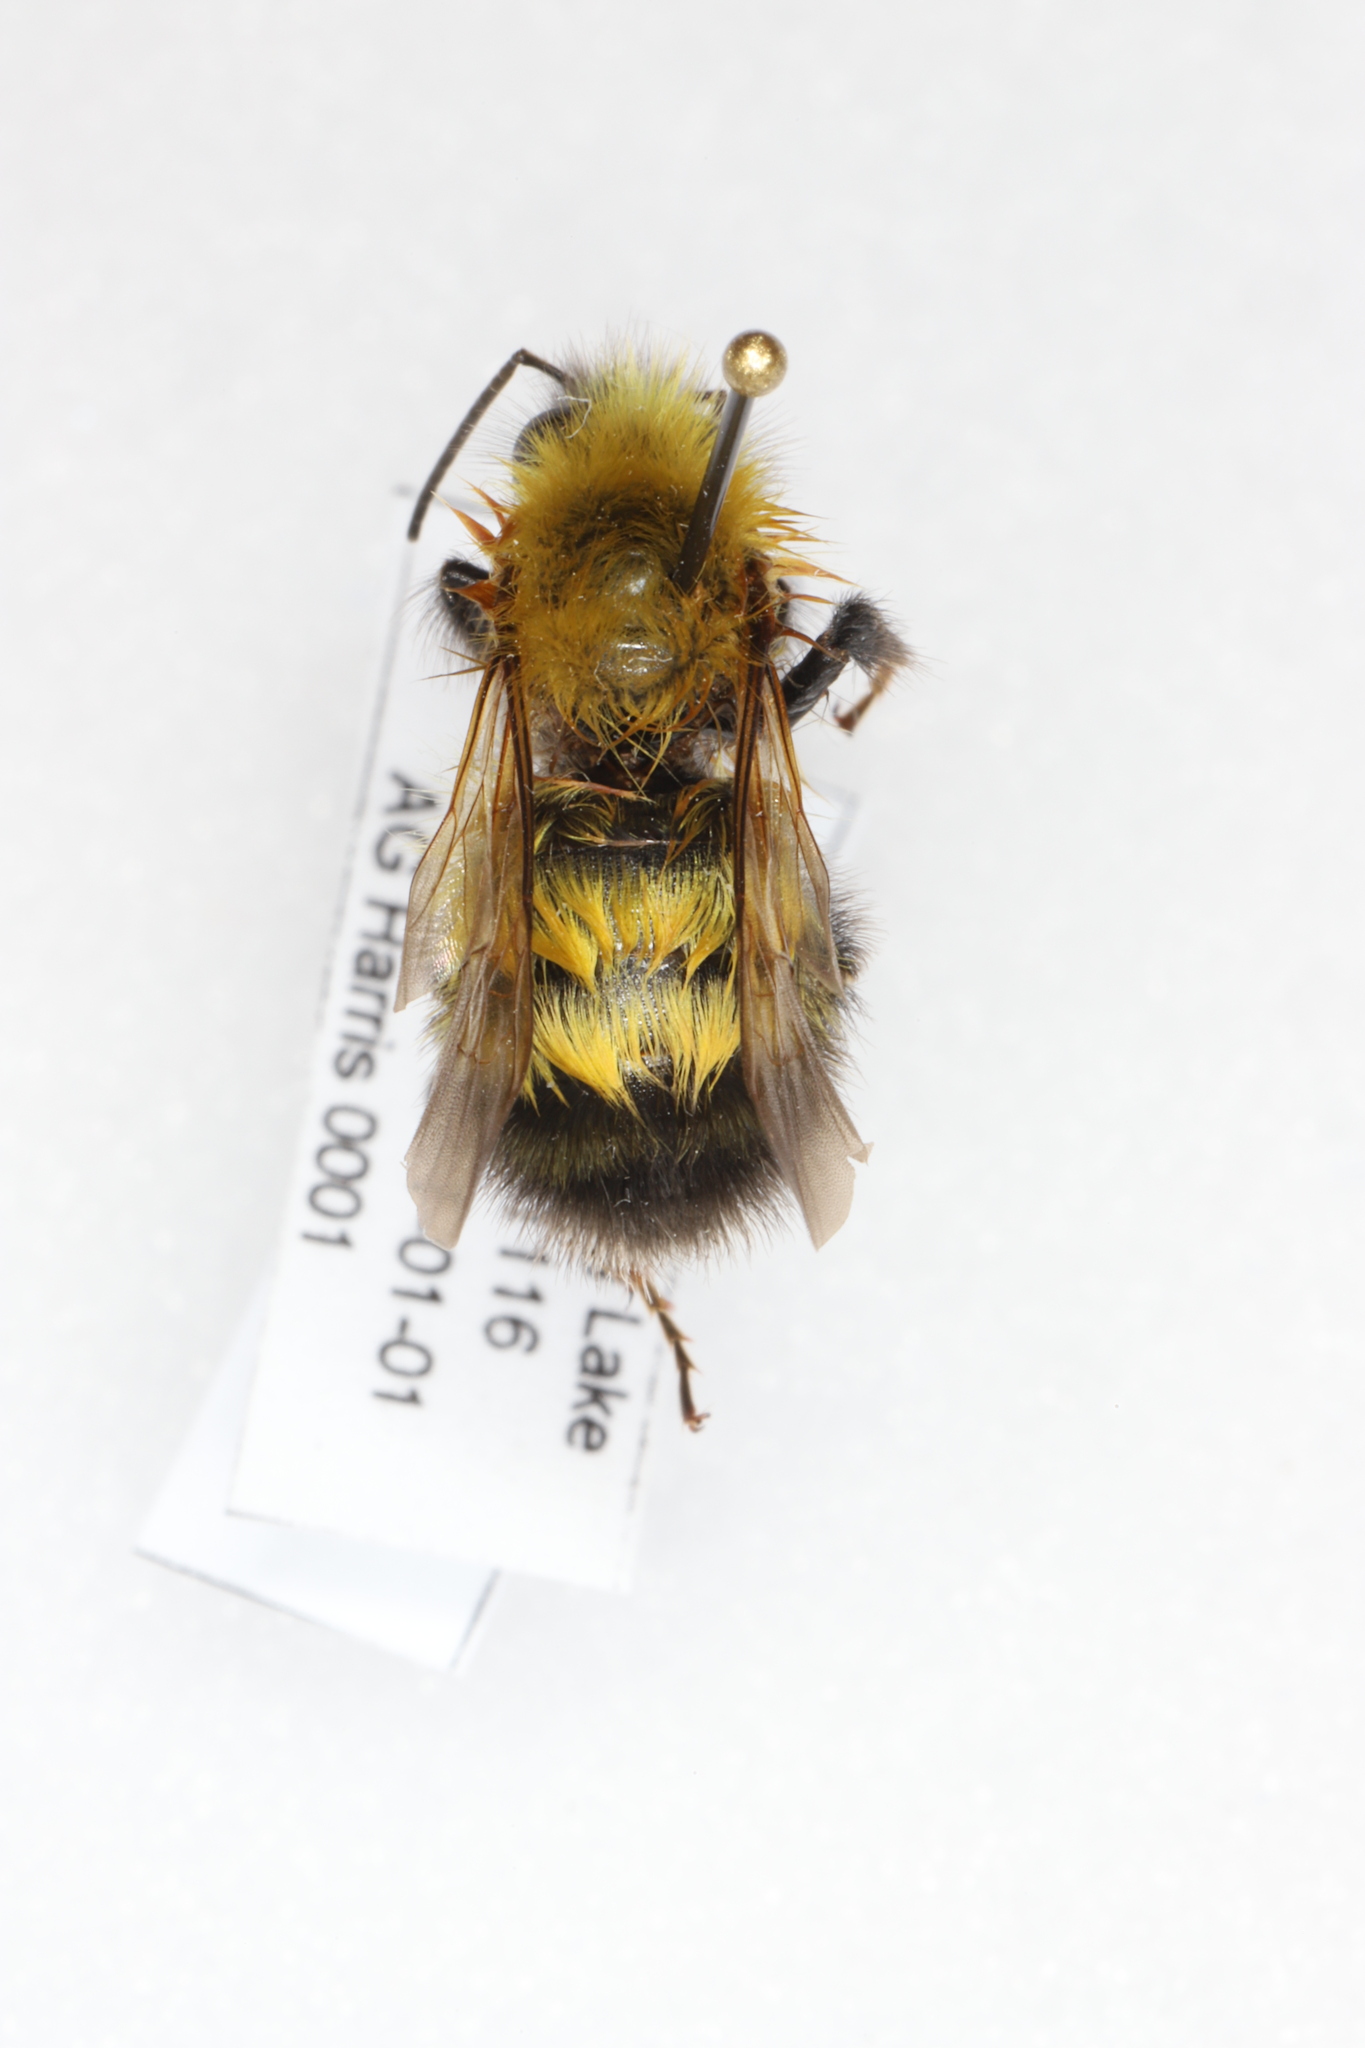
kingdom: Animalia
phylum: Arthropoda
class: Insecta
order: Hymenoptera
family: Apidae
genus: Bombus
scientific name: Bombus perplexus
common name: Confusing bumble bee
